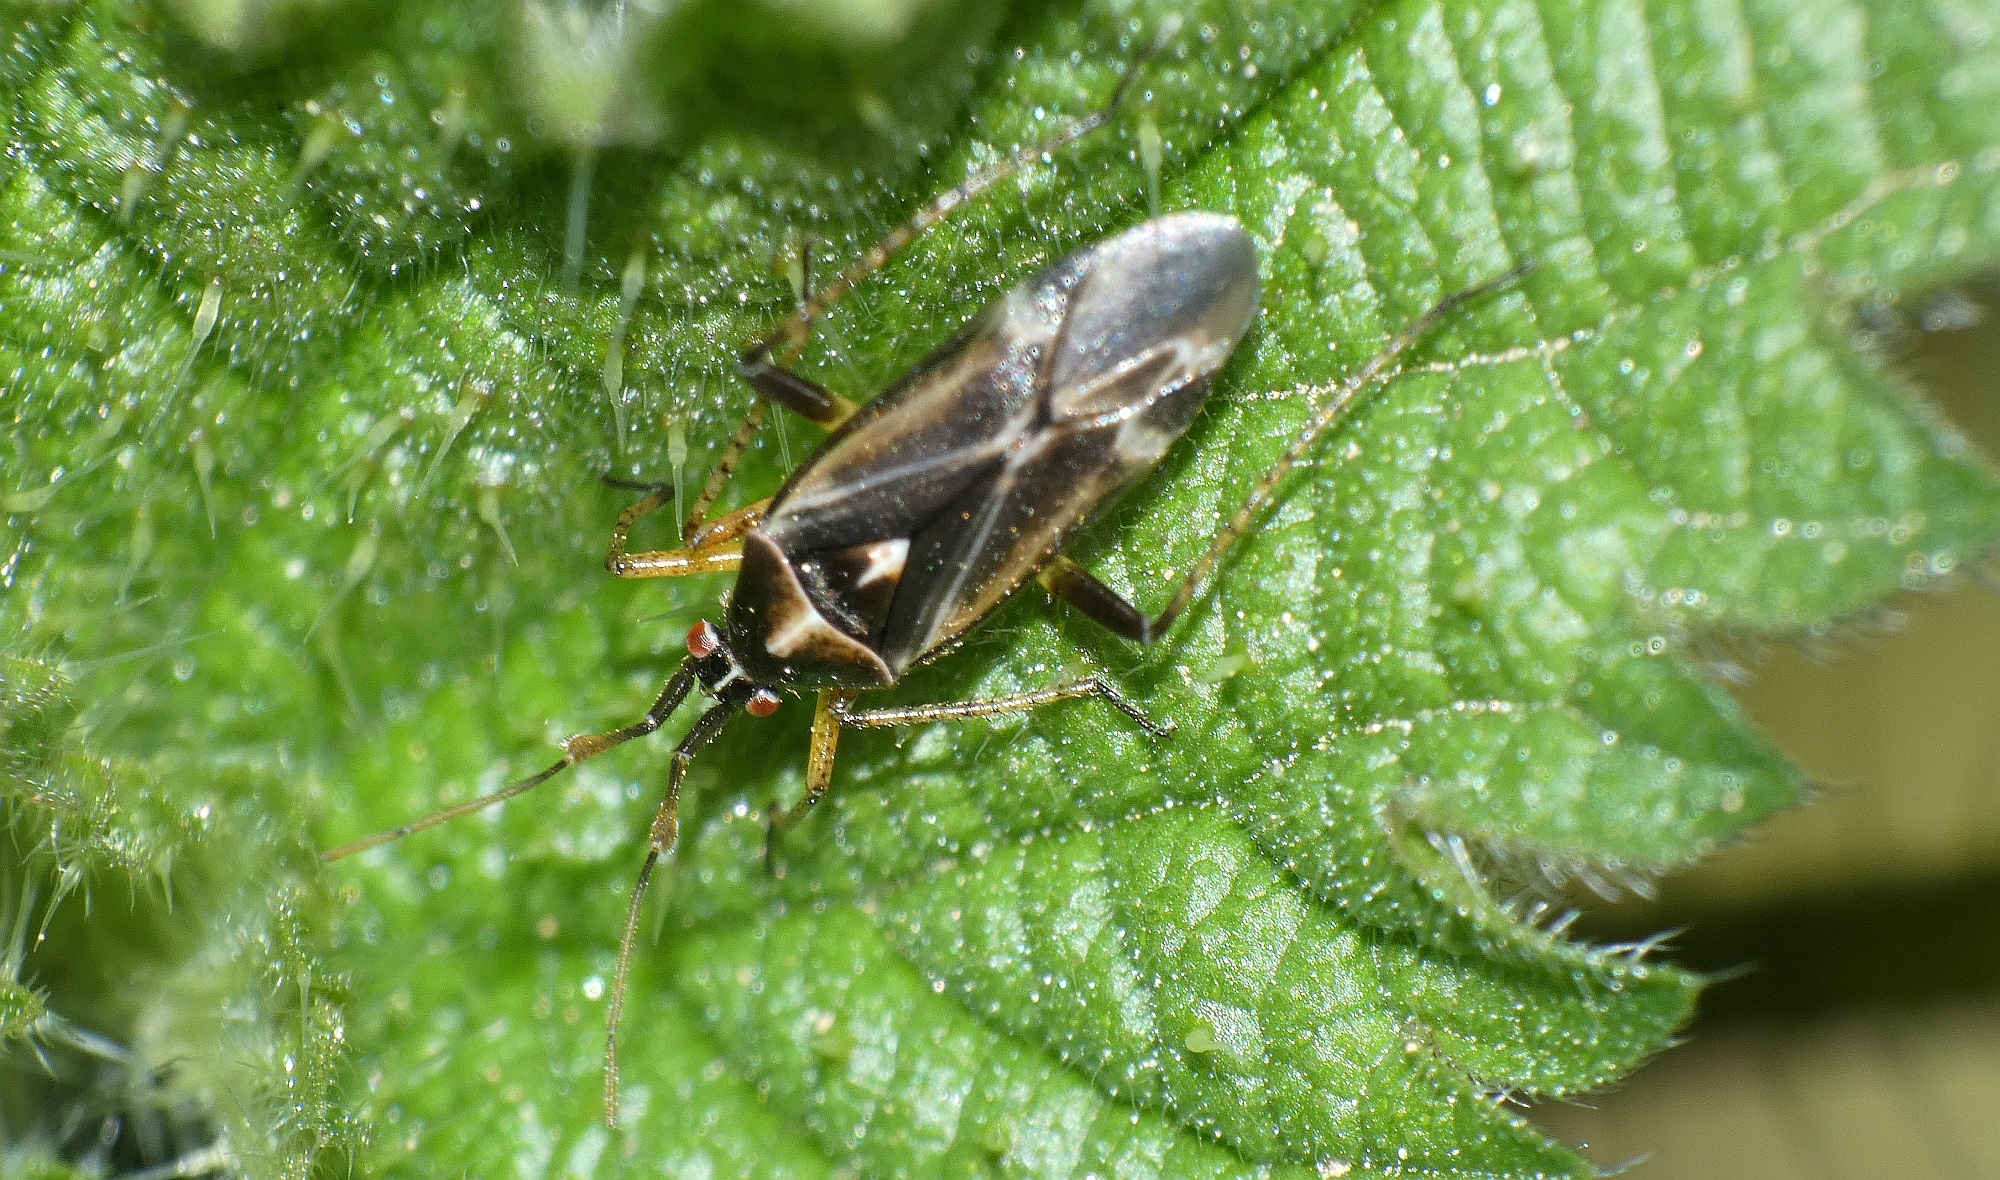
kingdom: Animalia
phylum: Arthropoda
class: Insecta
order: Hemiptera
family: Miridae
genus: Harpocera
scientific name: Harpocera thoracica
